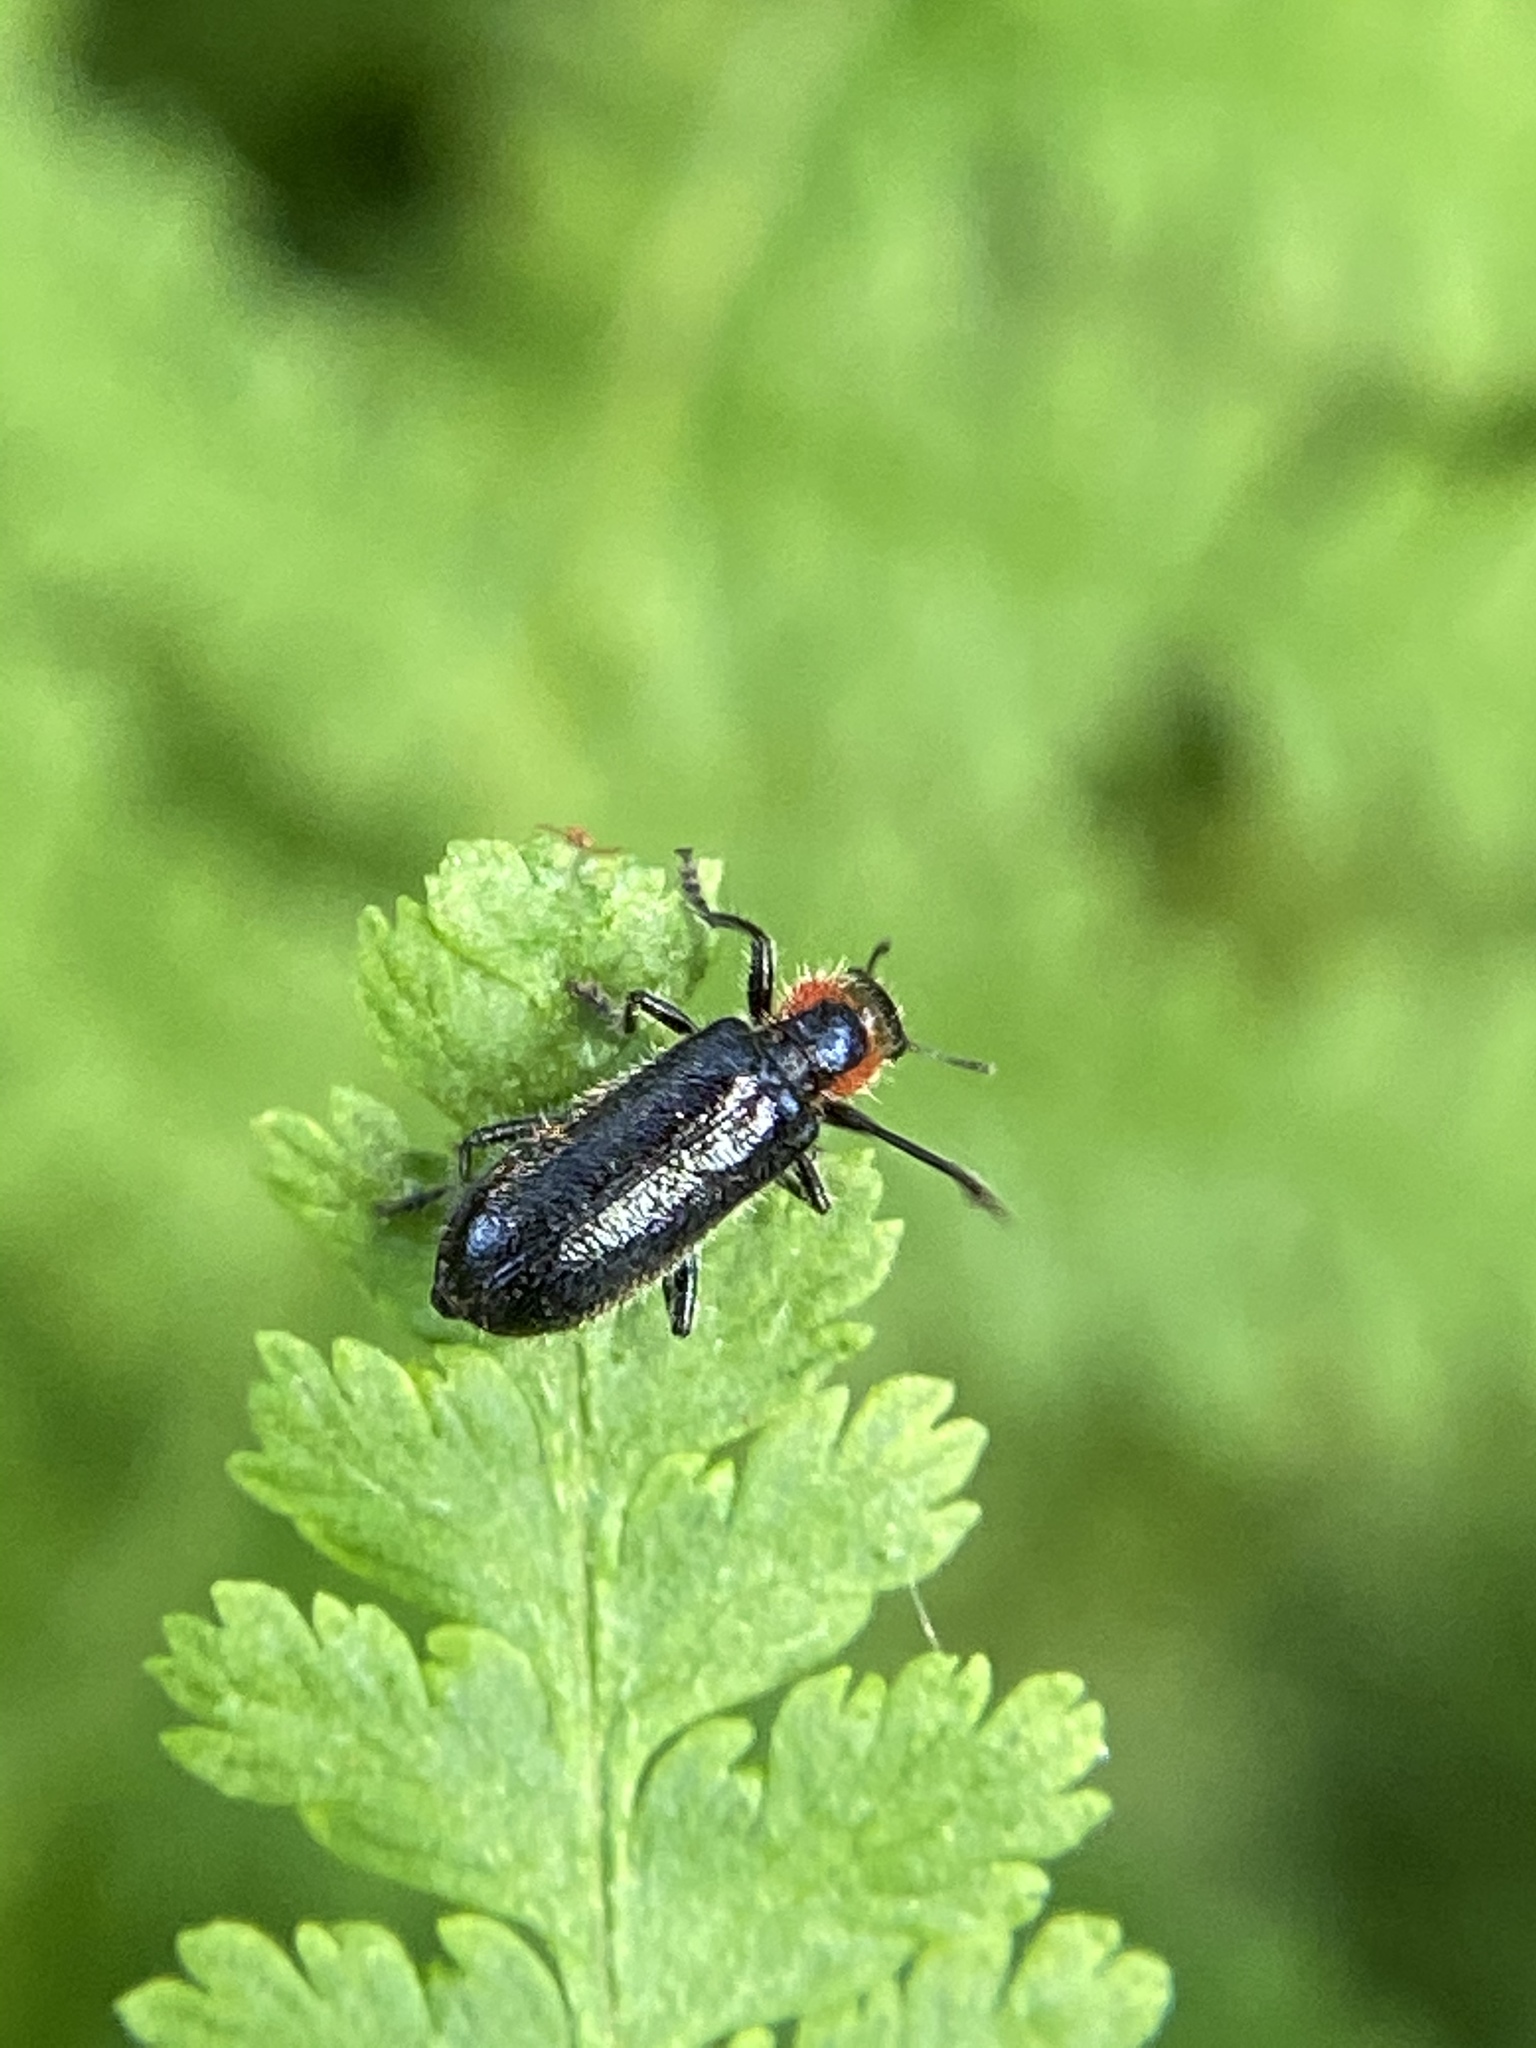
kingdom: Animalia
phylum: Arthropoda
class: Insecta
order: Coleoptera
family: Cleridae
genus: Placopterus
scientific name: Placopterus thoracicus
